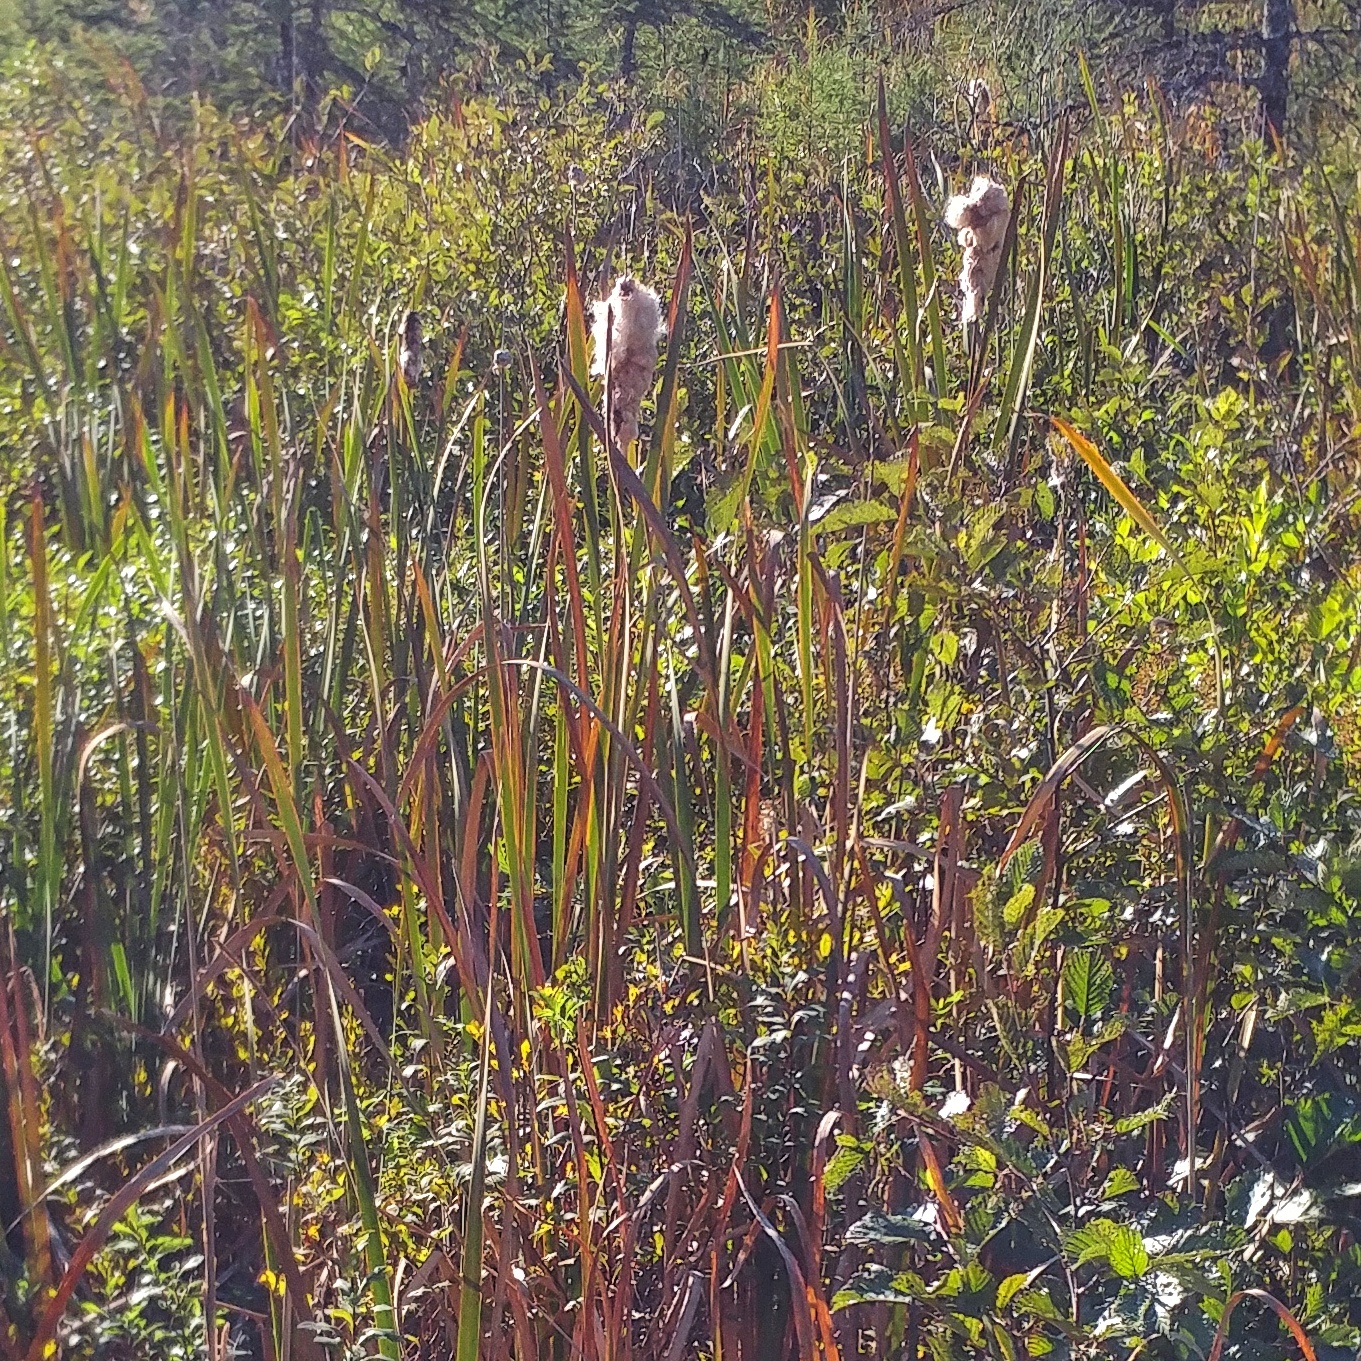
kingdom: Plantae
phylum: Tracheophyta
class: Liliopsida
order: Poales
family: Typhaceae
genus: Typha
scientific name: Typha latifolia
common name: Broadleaf cattail
